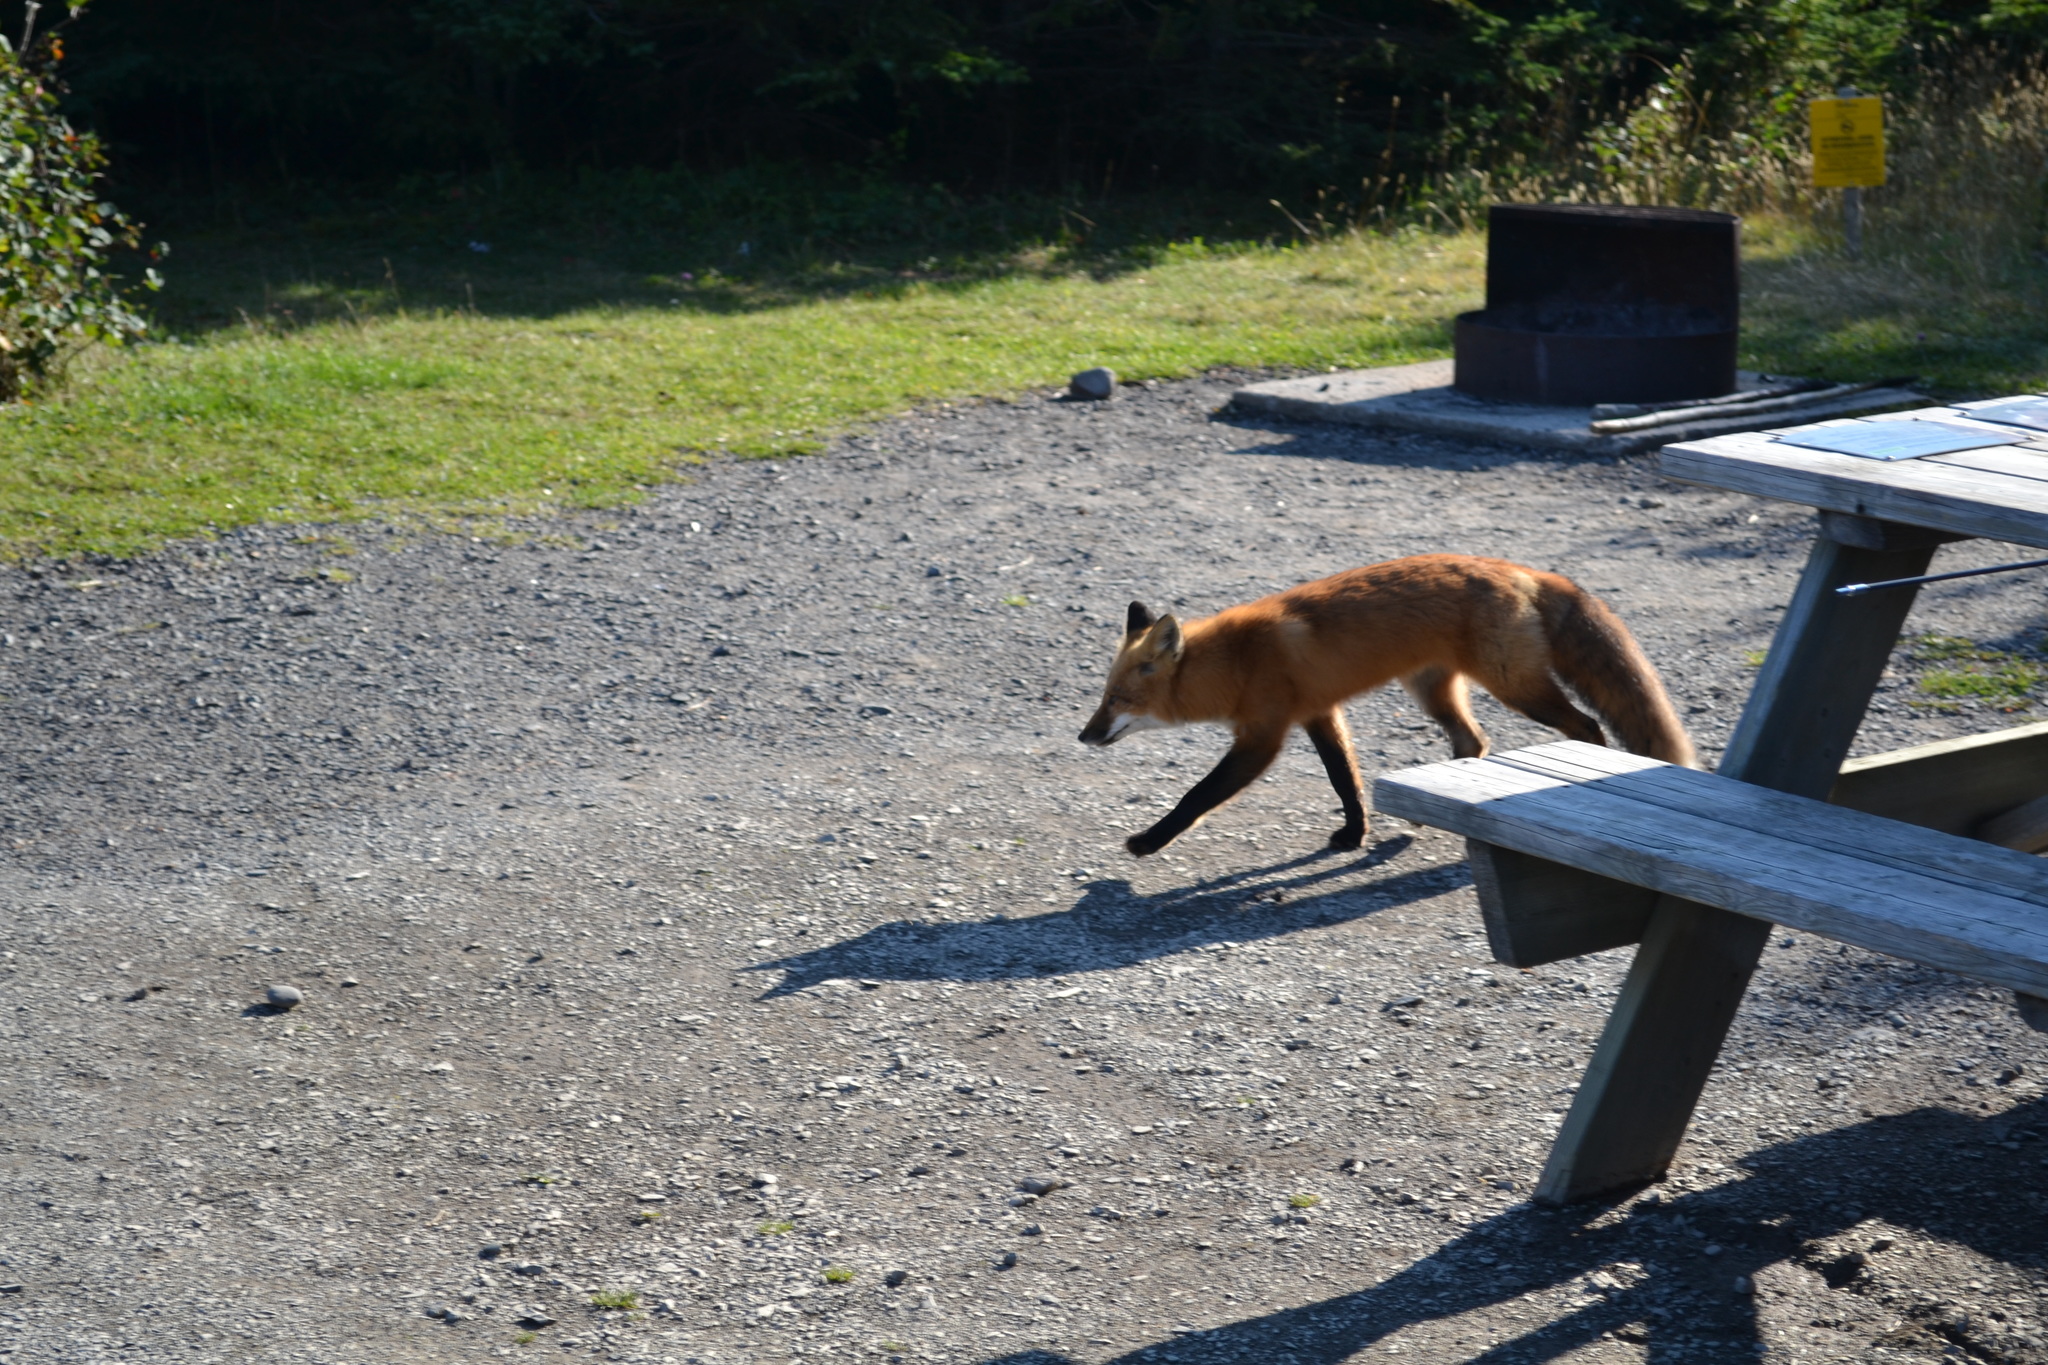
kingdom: Animalia
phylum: Chordata
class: Mammalia
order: Carnivora
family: Canidae
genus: Vulpes
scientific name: Vulpes vulpes
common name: Red fox
